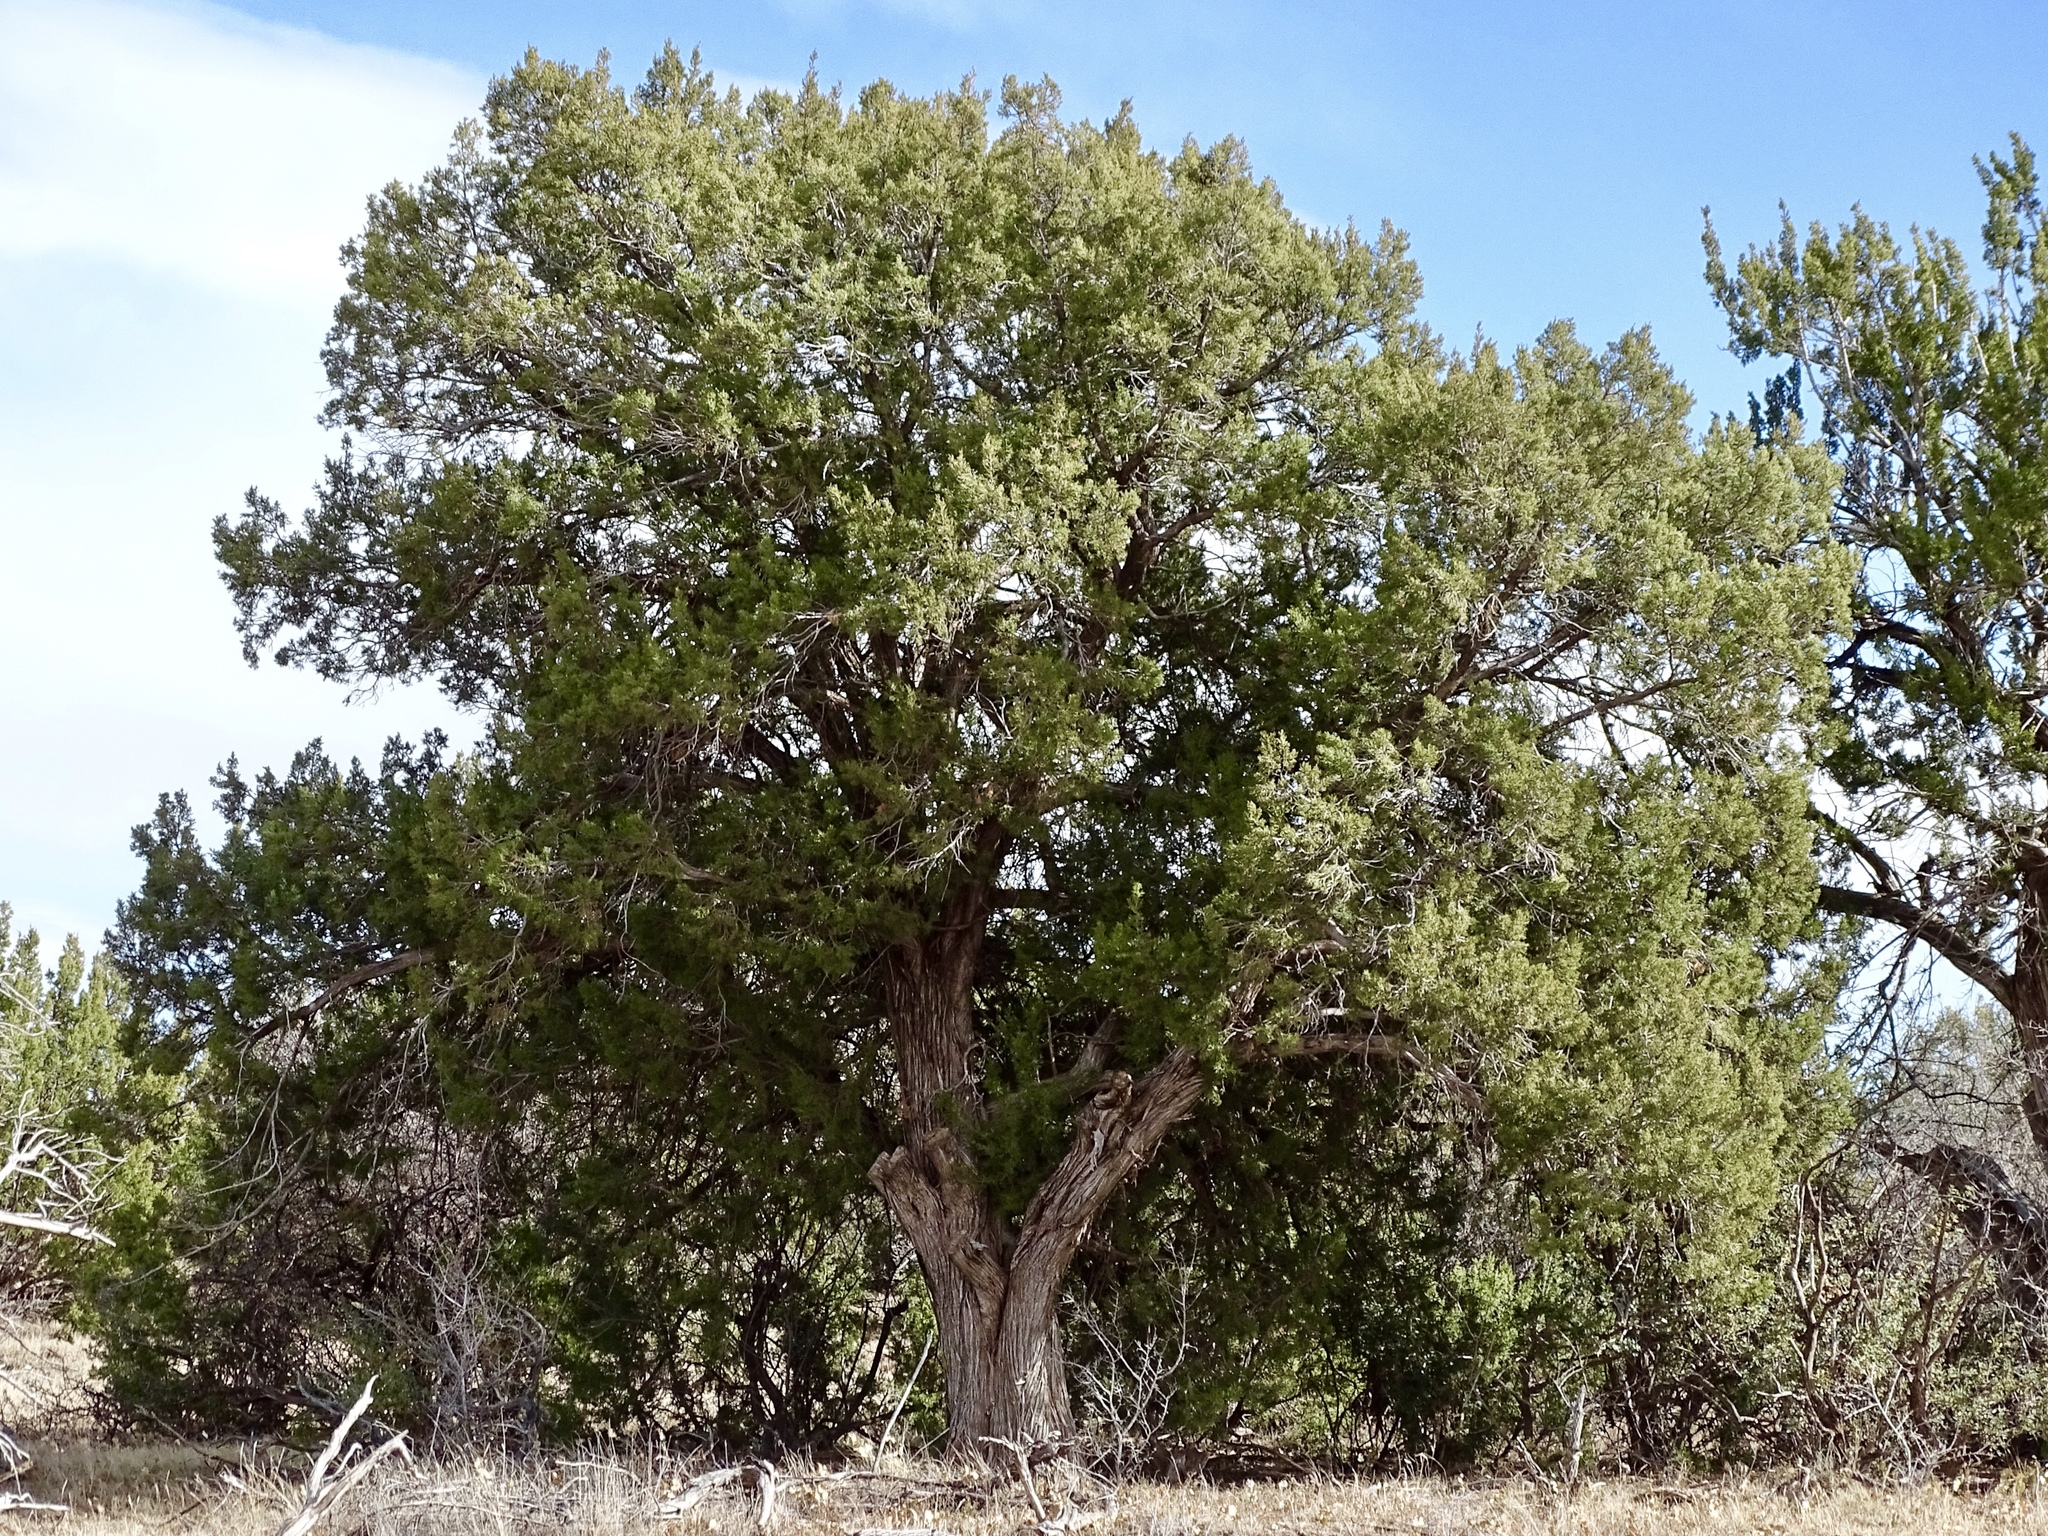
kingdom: Plantae
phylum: Tracheophyta
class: Pinopsida
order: Pinales
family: Cupressaceae
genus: Juniperus
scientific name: Juniperus monosperma
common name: One-seed juniper
